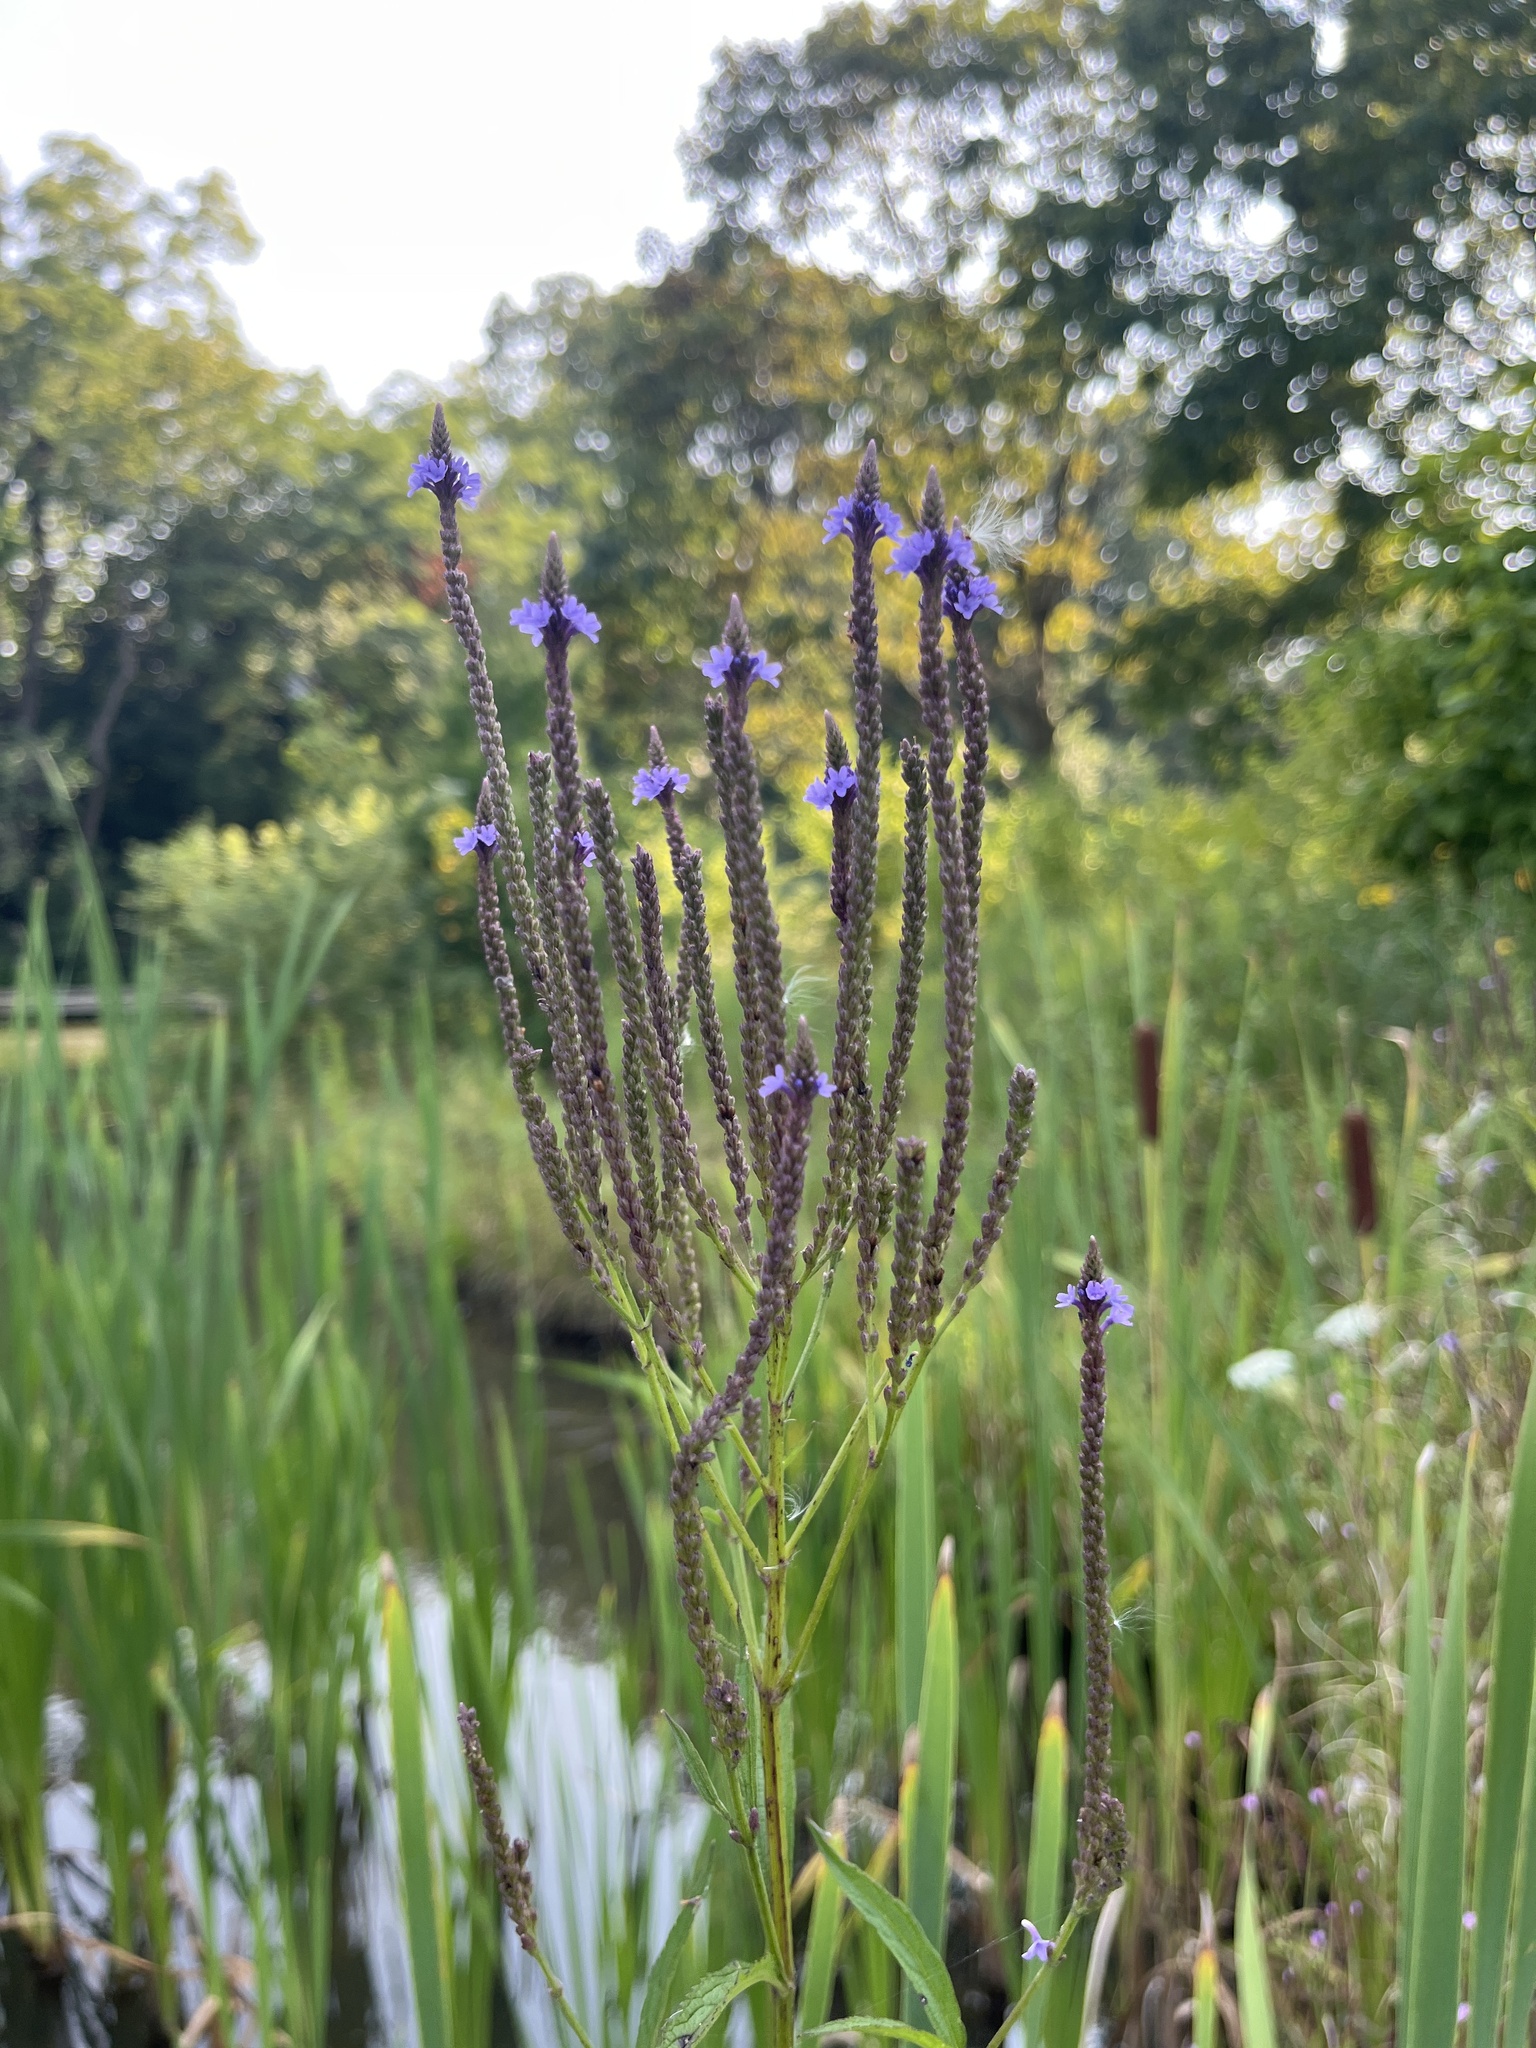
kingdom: Plantae
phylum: Tracheophyta
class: Magnoliopsida
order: Lamiales
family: Verbenaceae
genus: Verbena
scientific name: Verbena hastata
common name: American blue vervain
